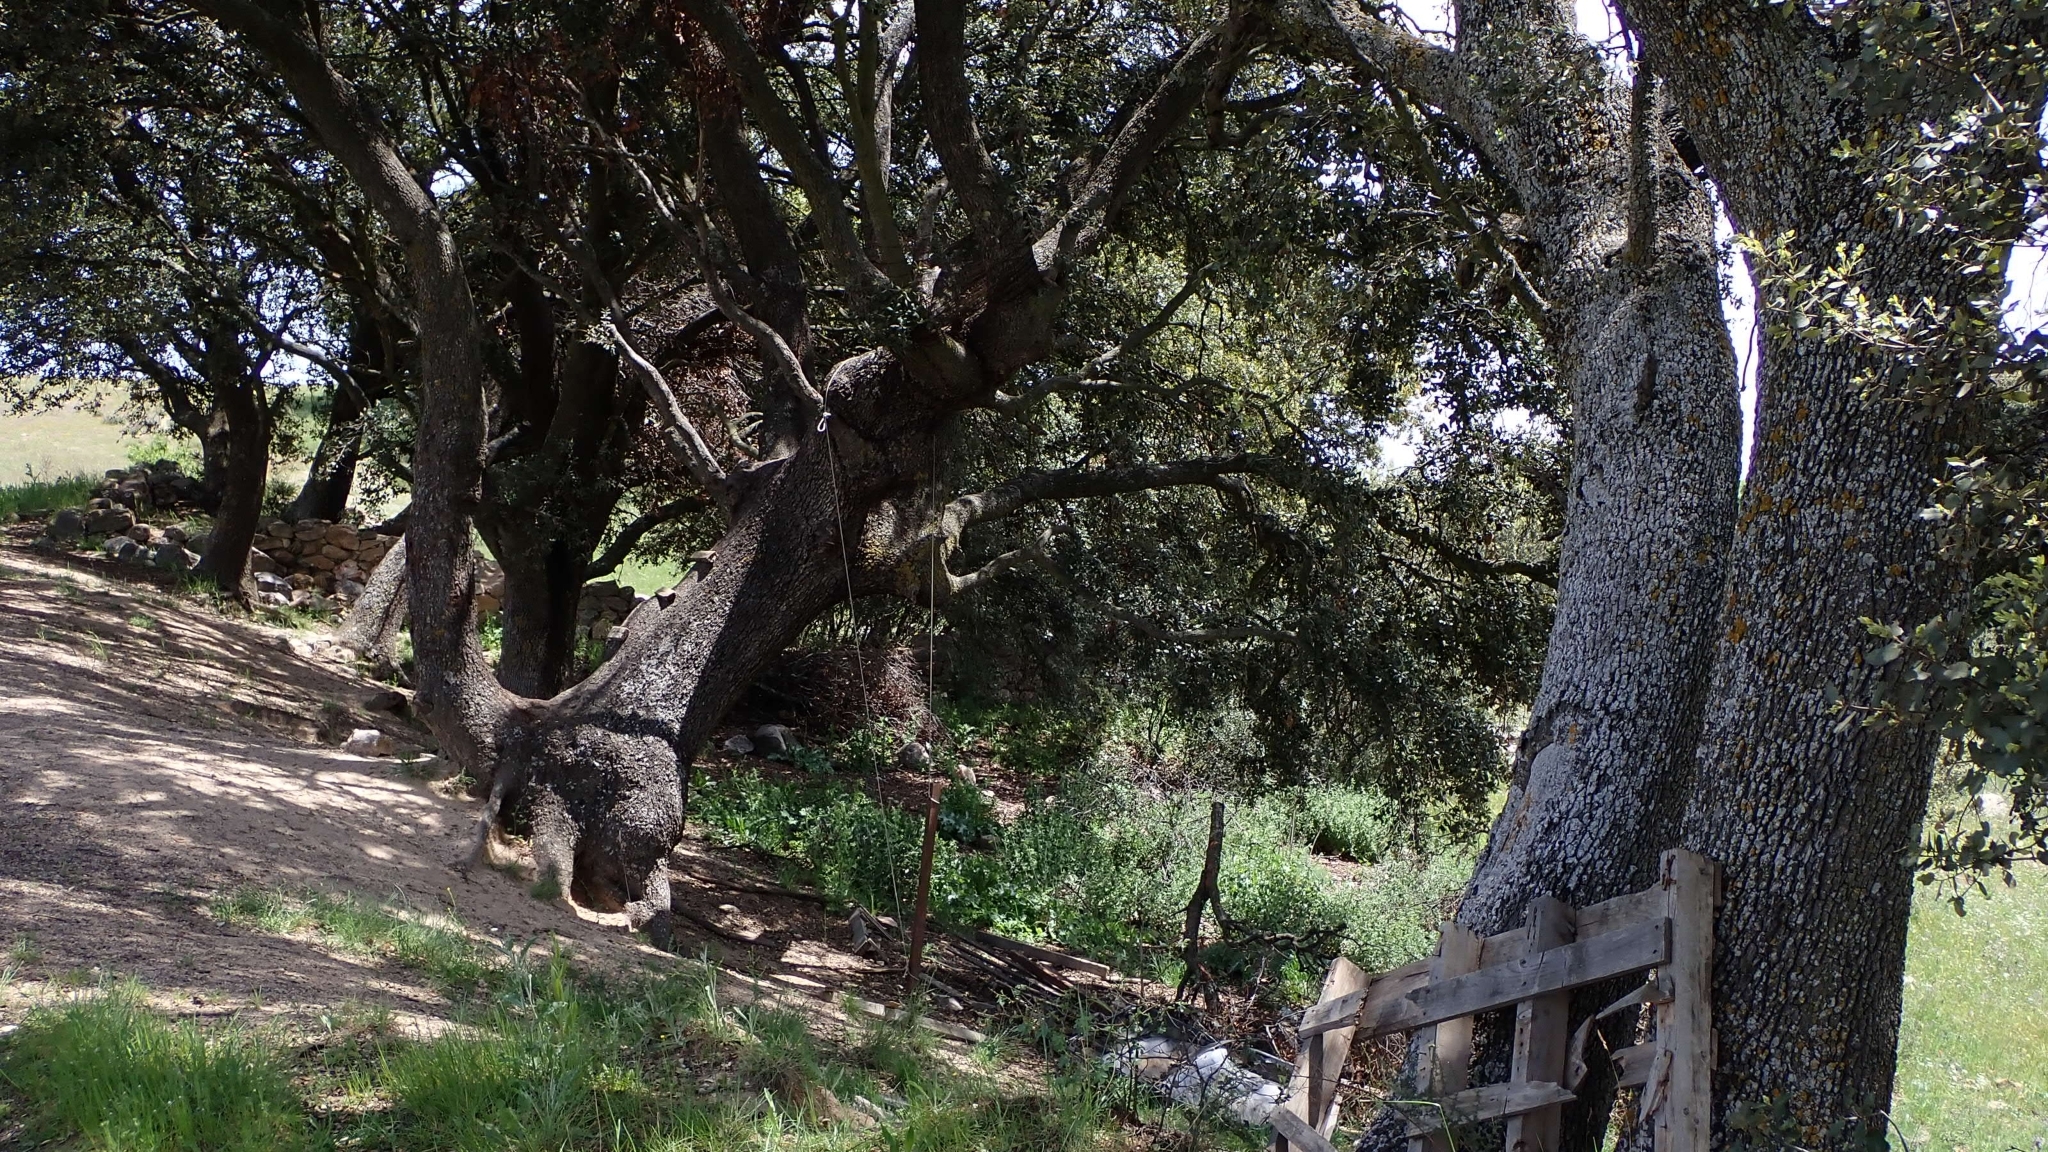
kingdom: Plantae
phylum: Tracheophyta
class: Magnoliopsida
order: Fagales
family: Fagaceae
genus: Quercus
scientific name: Quercus rotundifolia
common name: Holm oak
